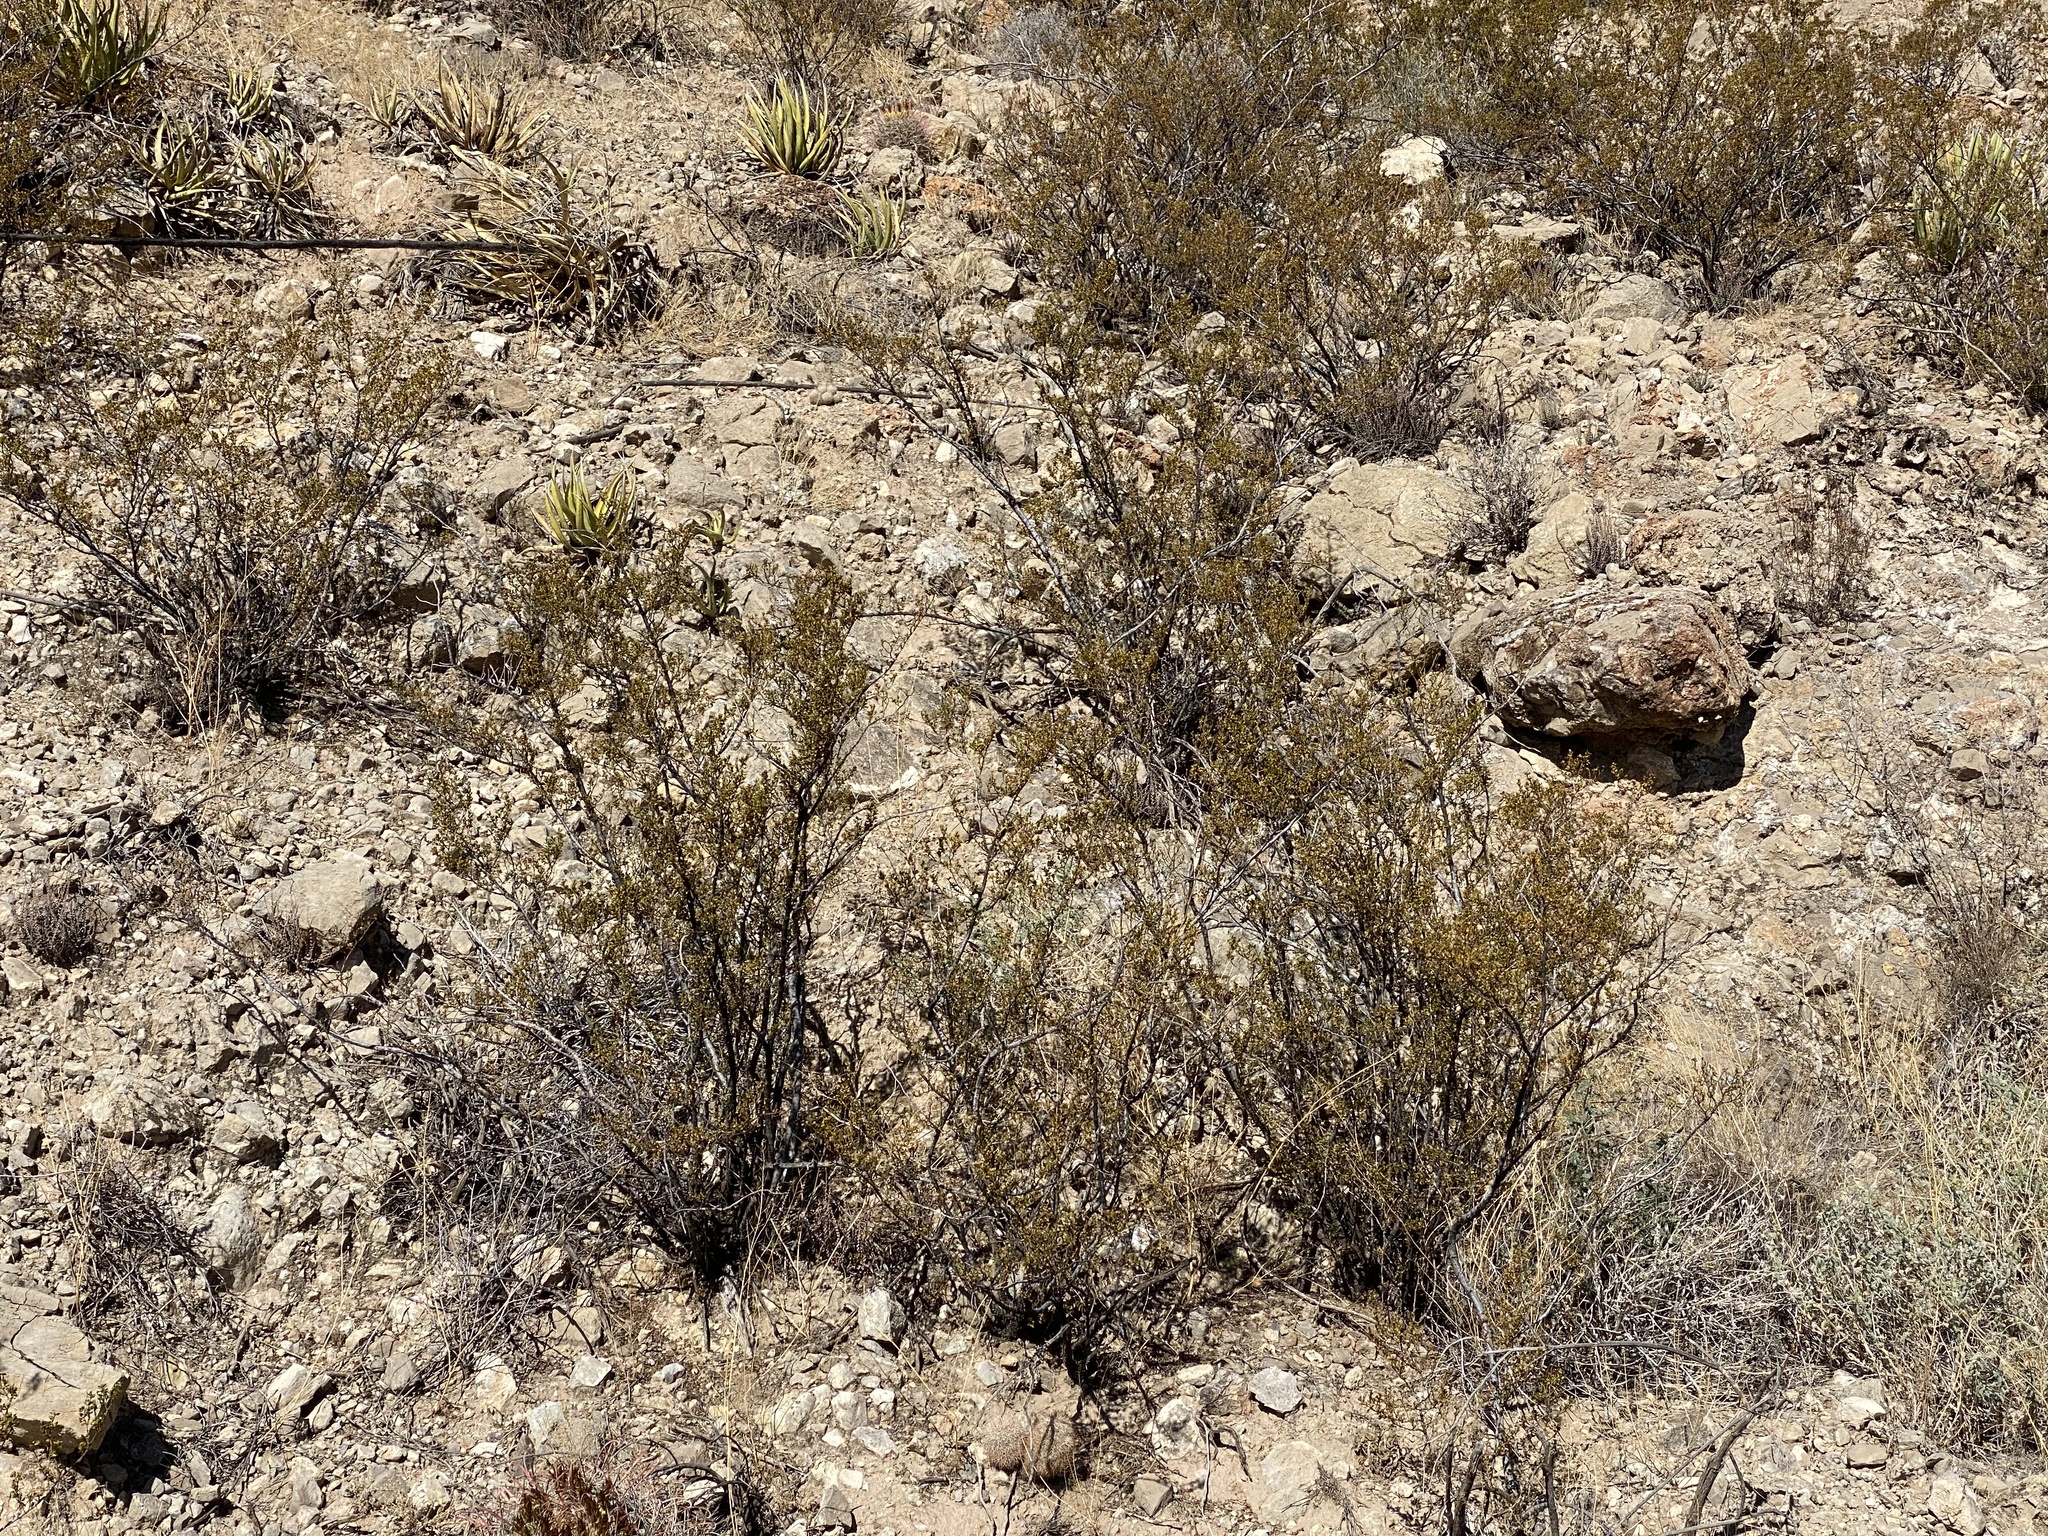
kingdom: Plantae
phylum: Tracheophyta
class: Magnoliopsida
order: Zygophyllales
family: Zygophyllaceae
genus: Larrea
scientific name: Larrea tridentata
